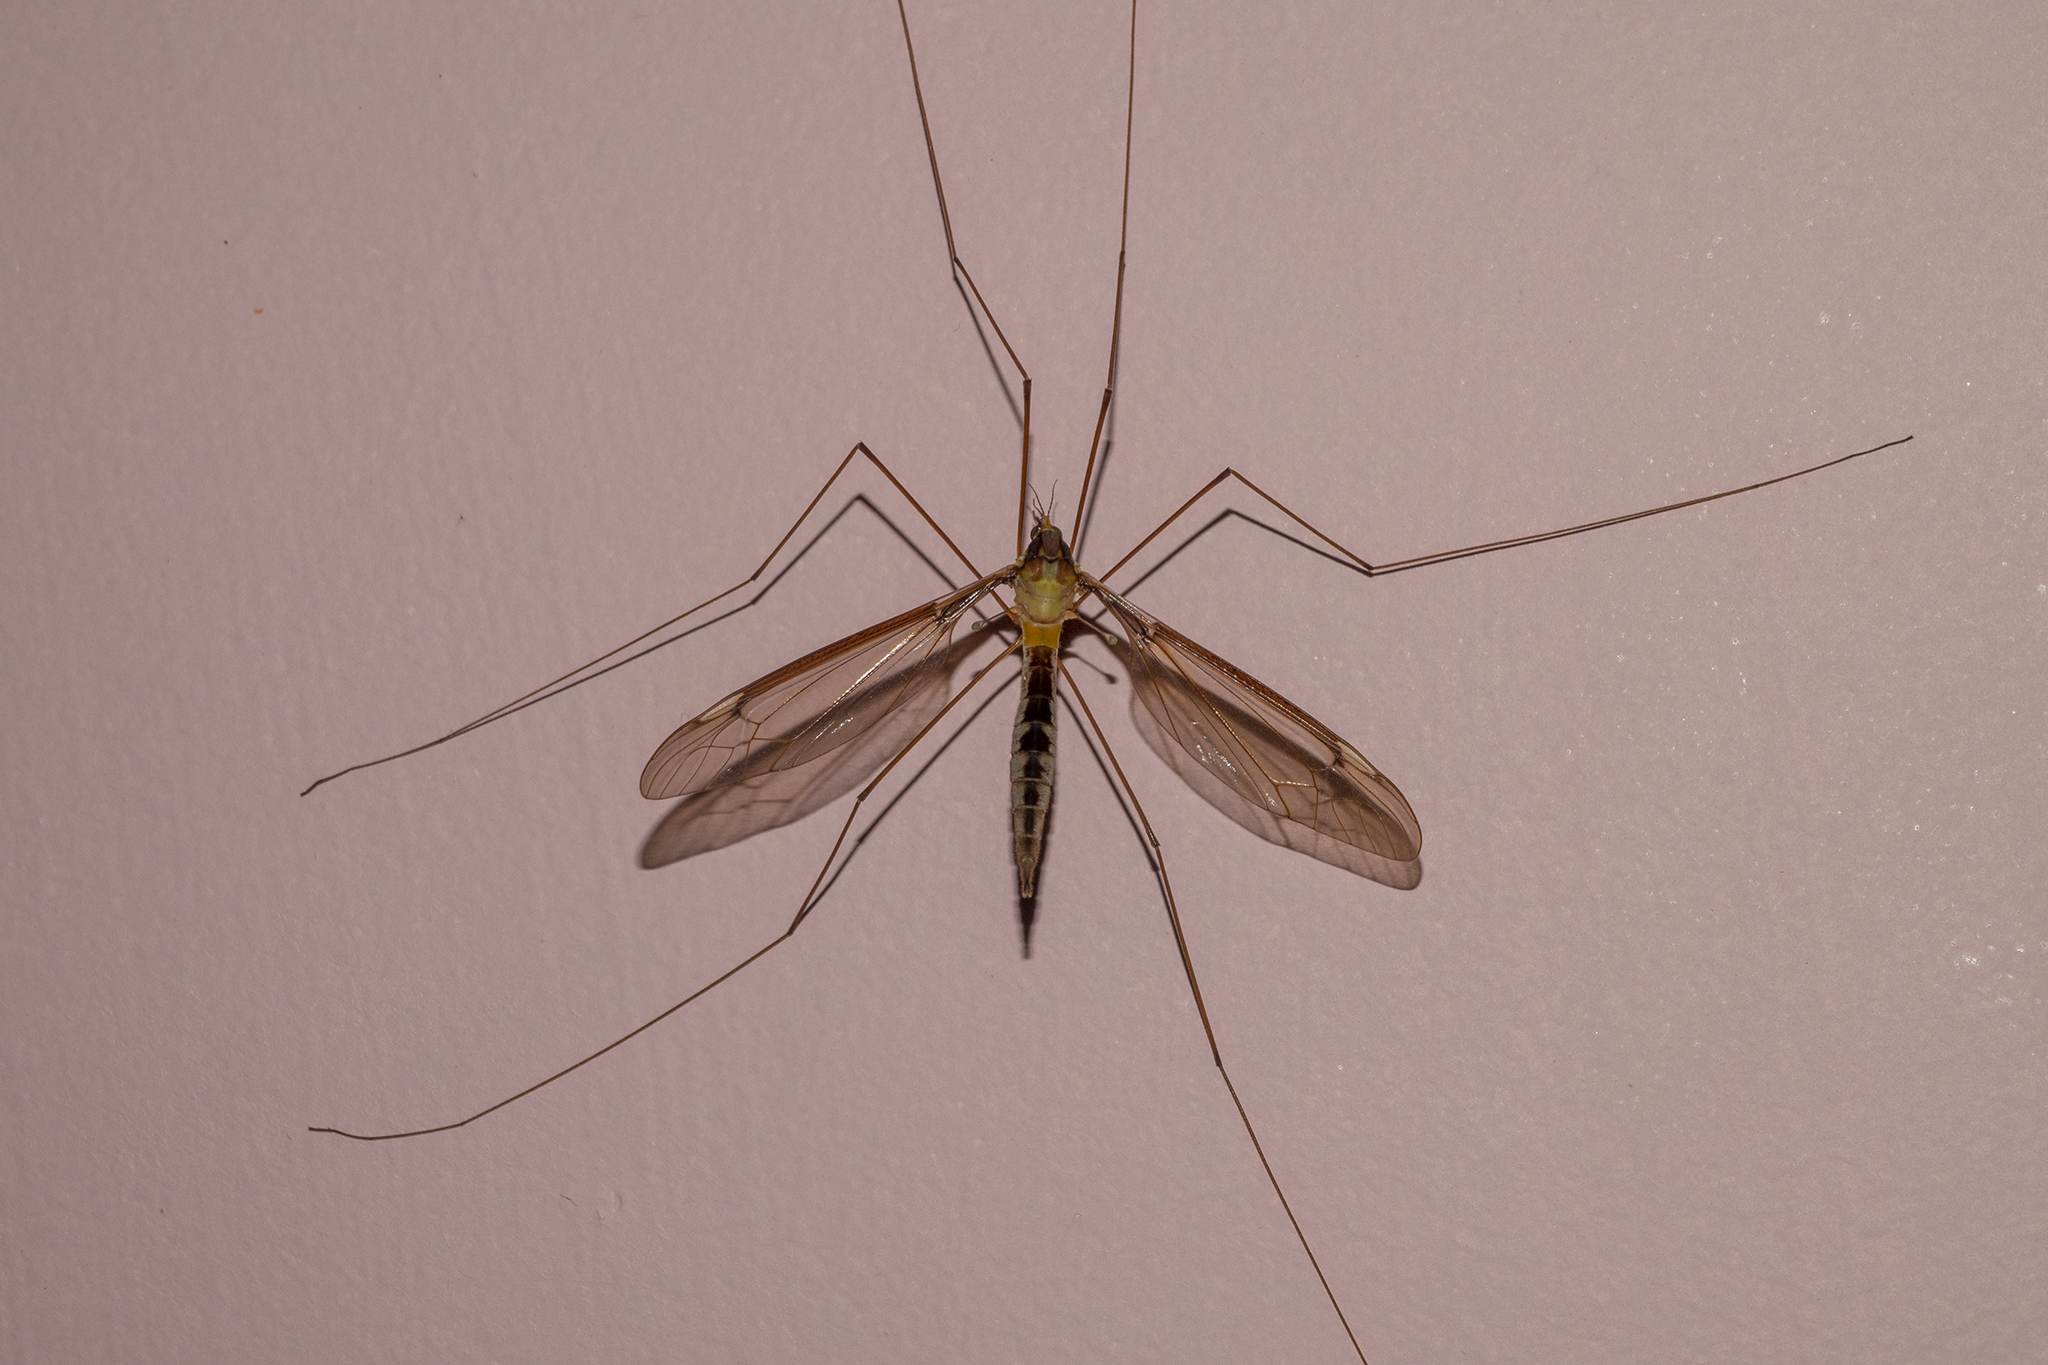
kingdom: Animalia
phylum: Arthropoda
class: Insecta
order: Diptera
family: Tipulidae
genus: Leptotarsus
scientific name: Leptotarsus albistigma
